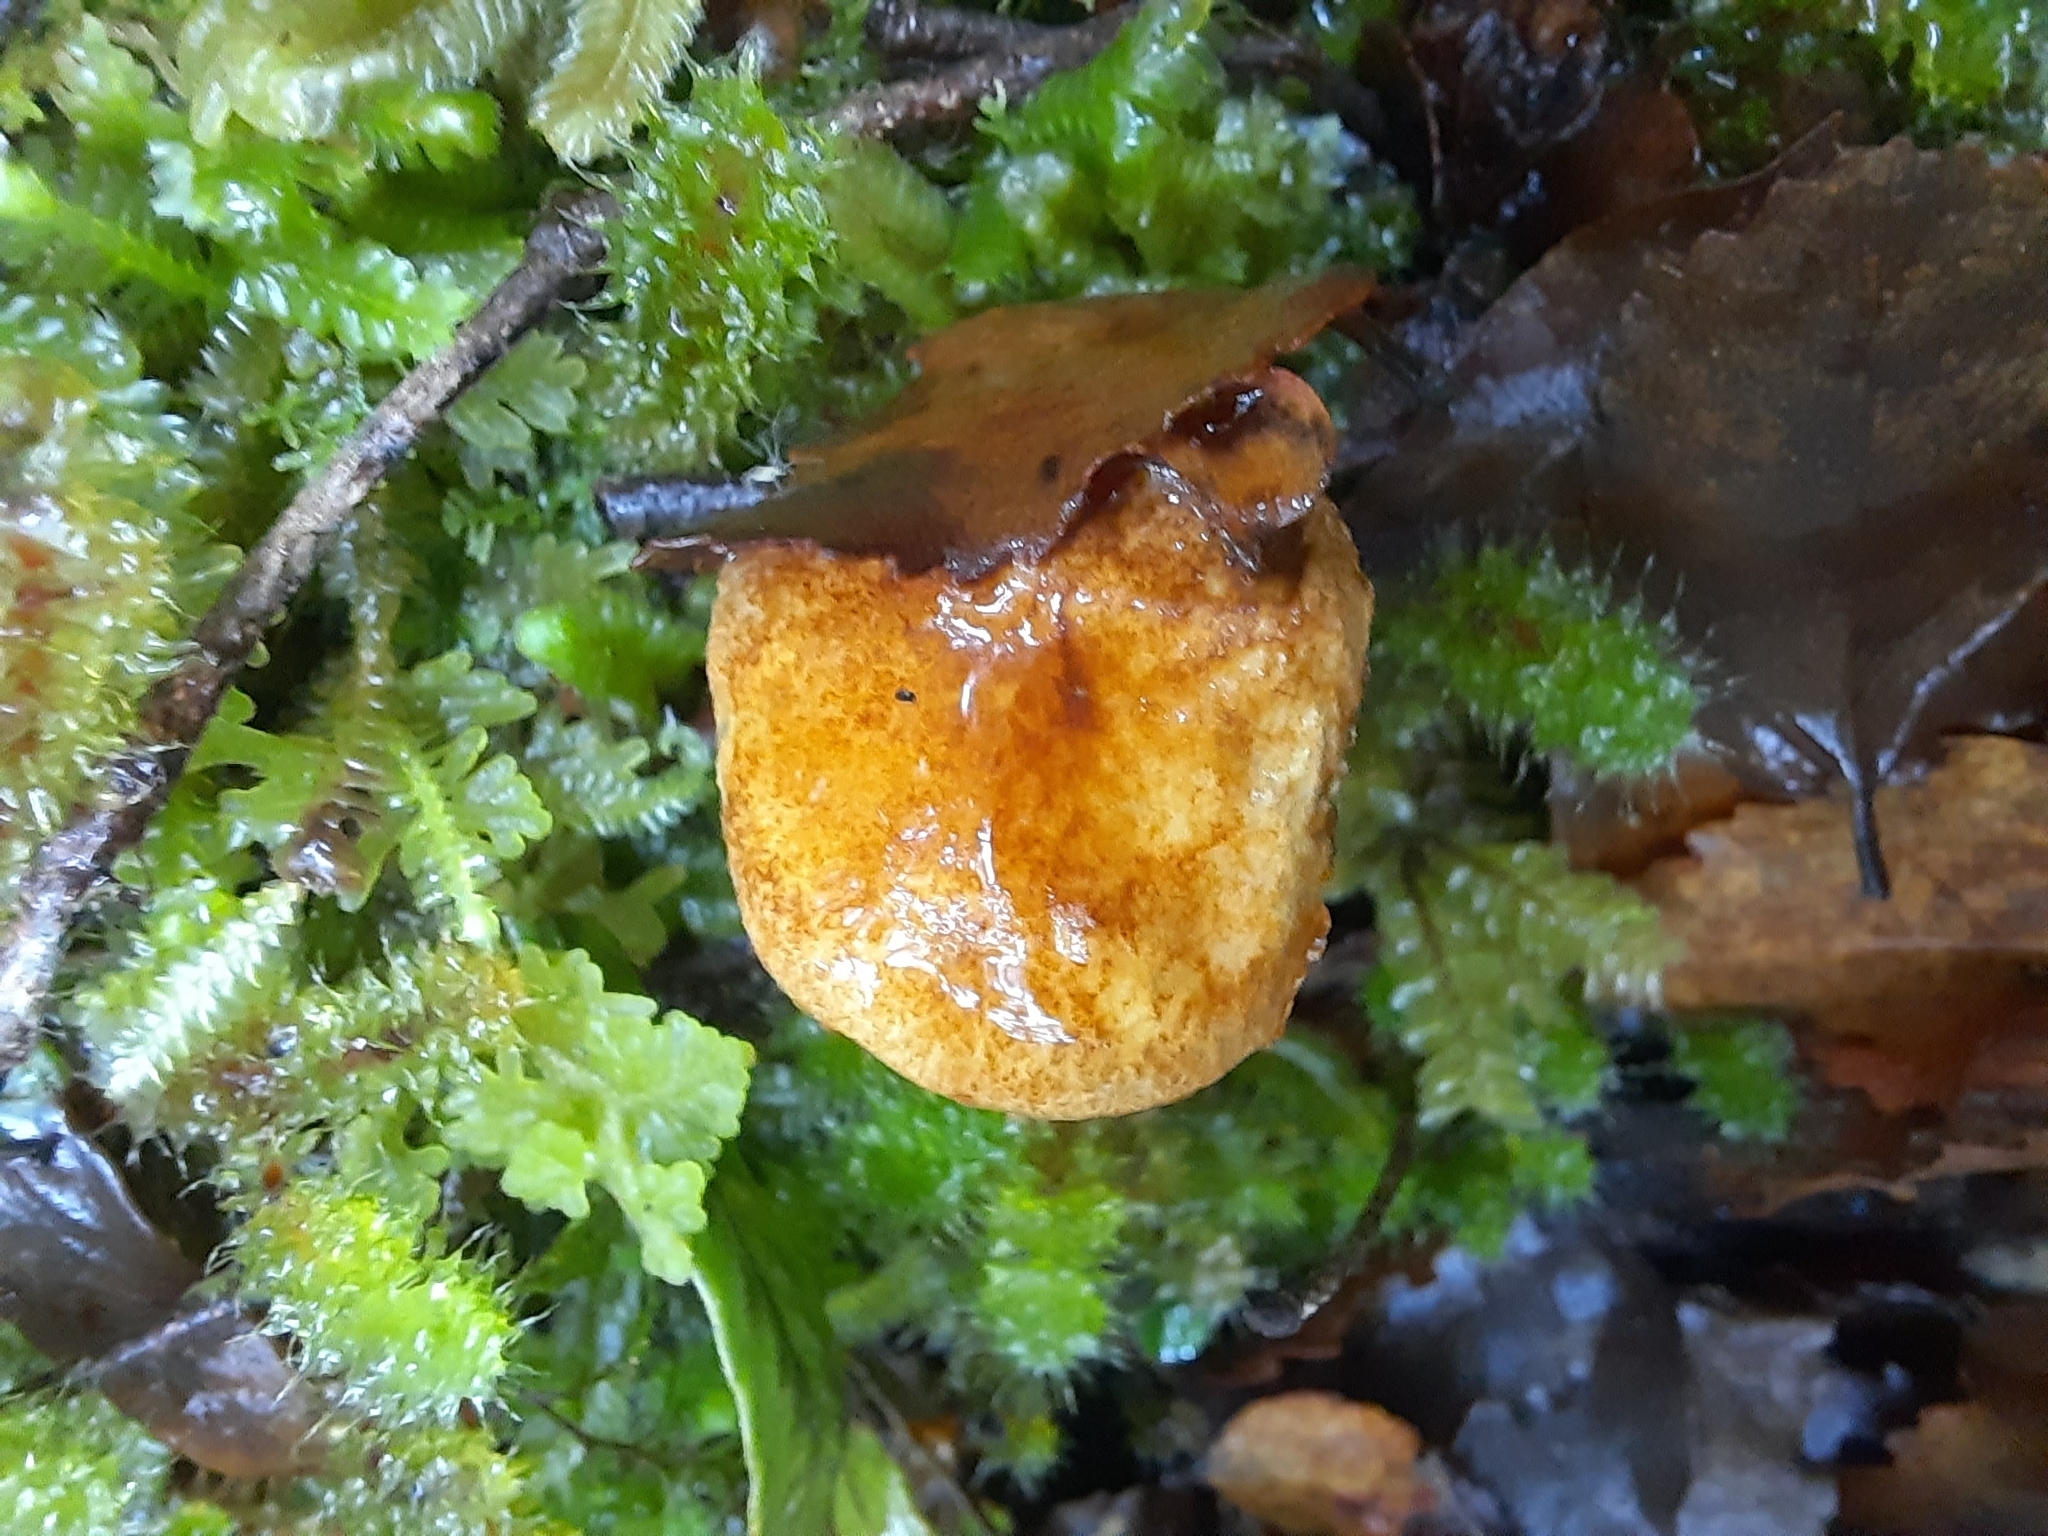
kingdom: Fungi
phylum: Basidiomycota
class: Agaricomycetes
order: Boletales
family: Boletaceae
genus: Austroboletus
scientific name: Austroboletus lacunosus
